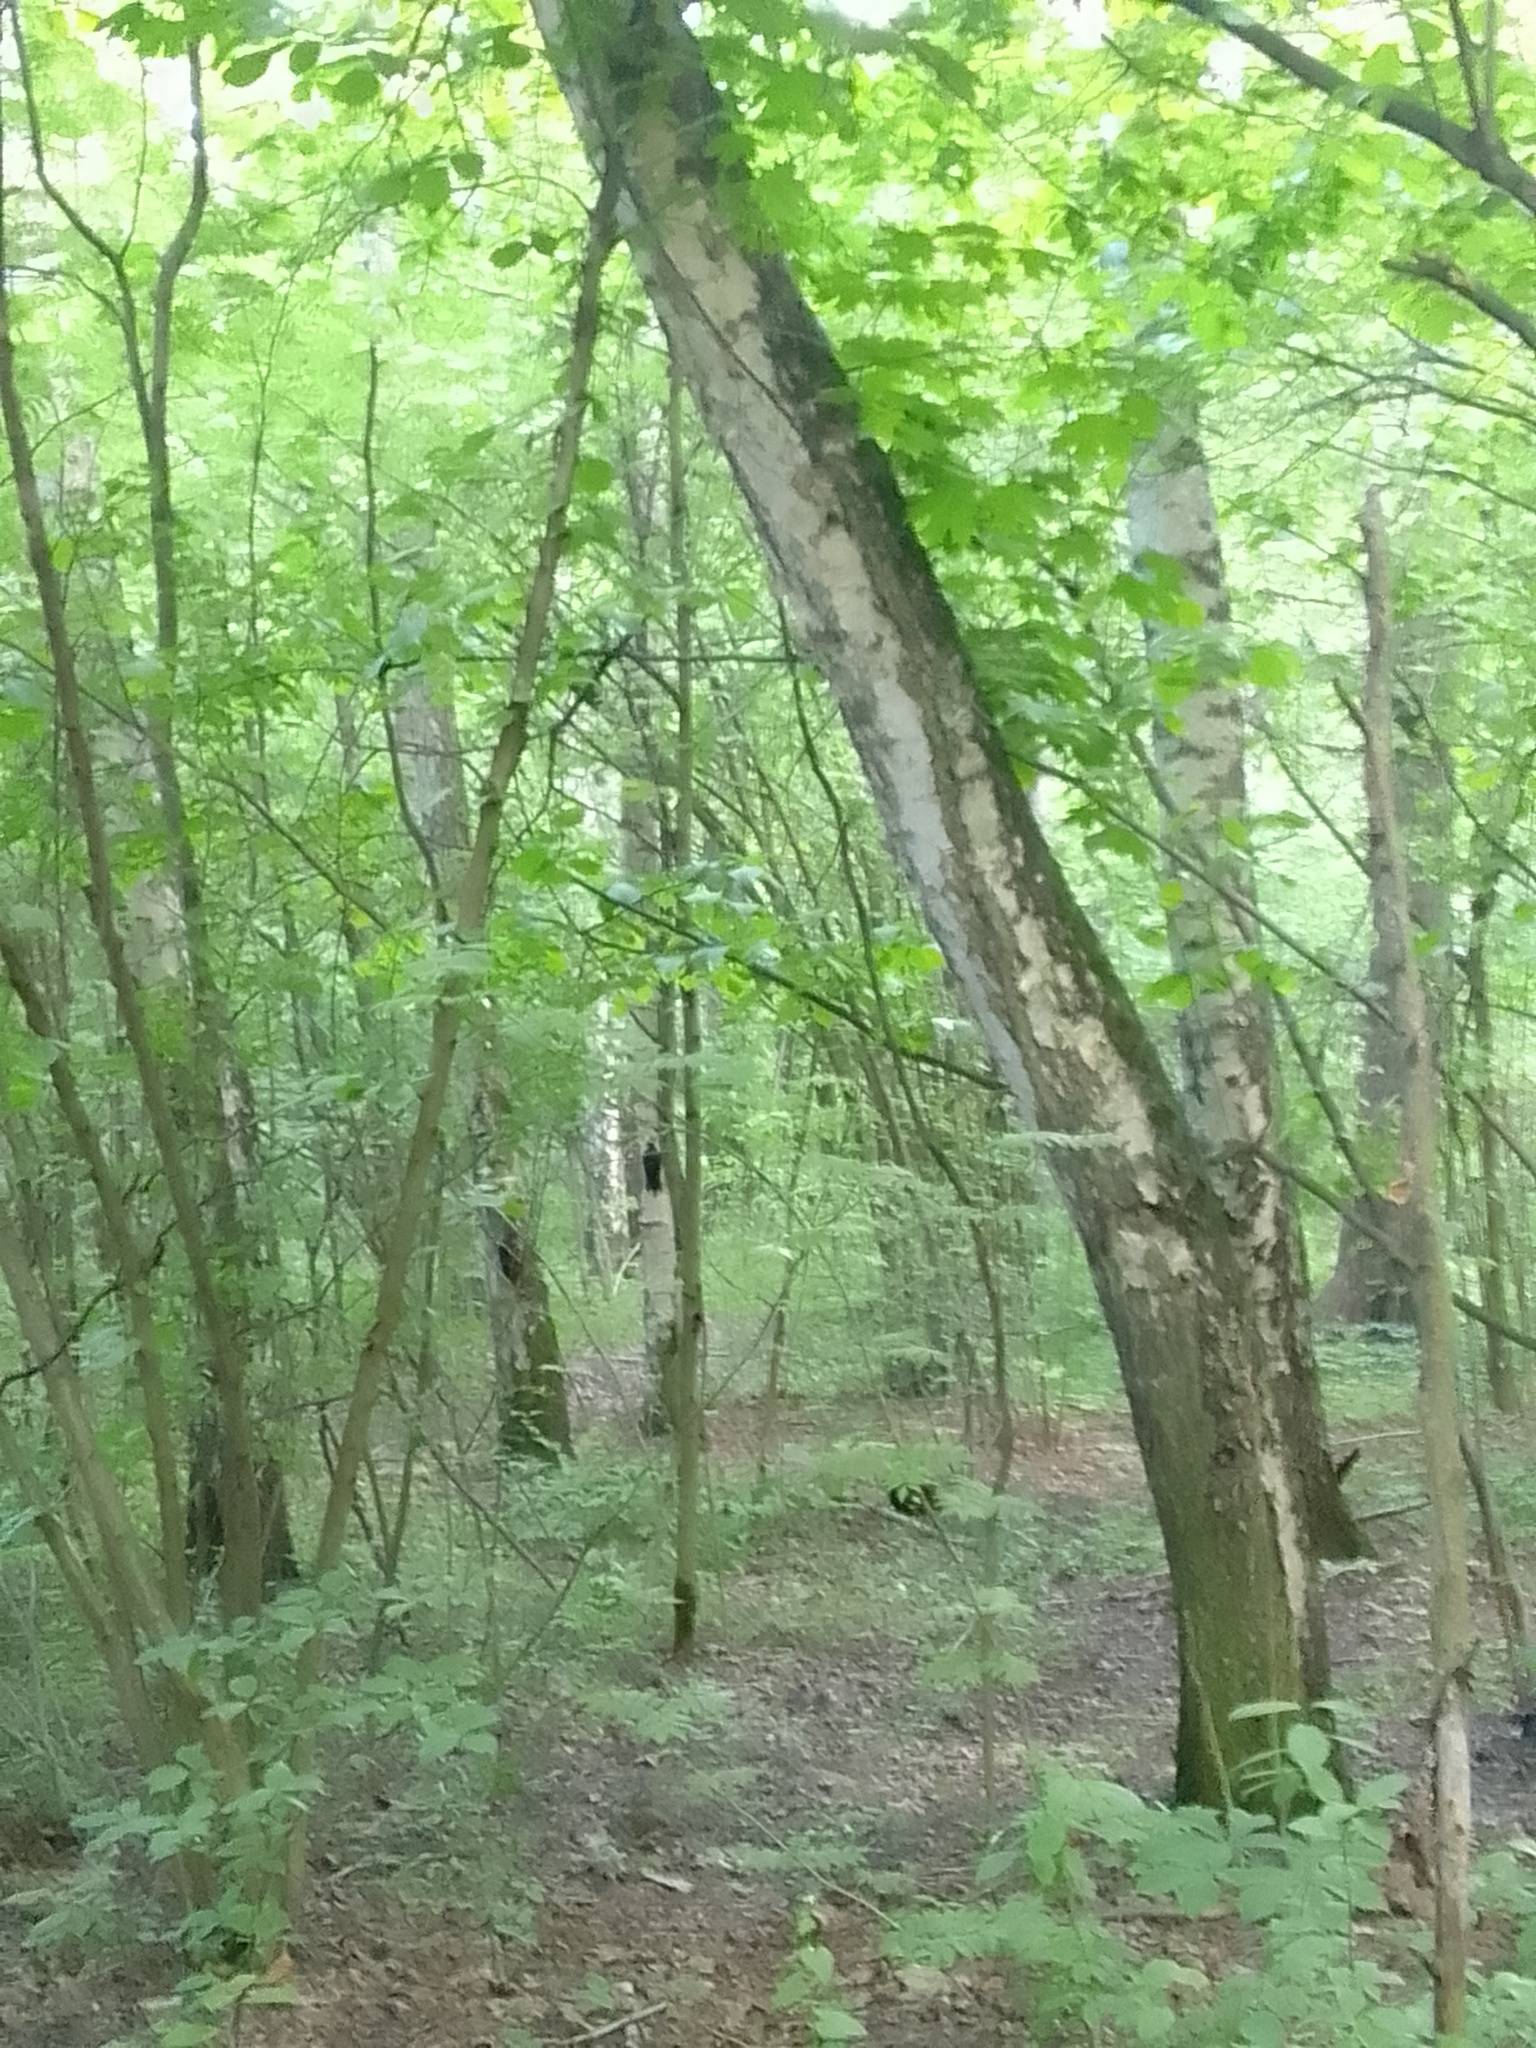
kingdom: Animalia
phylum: Chordata
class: Aves
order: Piciformes
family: Picidae
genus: Dryocopus
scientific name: Dryocopus martius
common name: Black woodpecker
